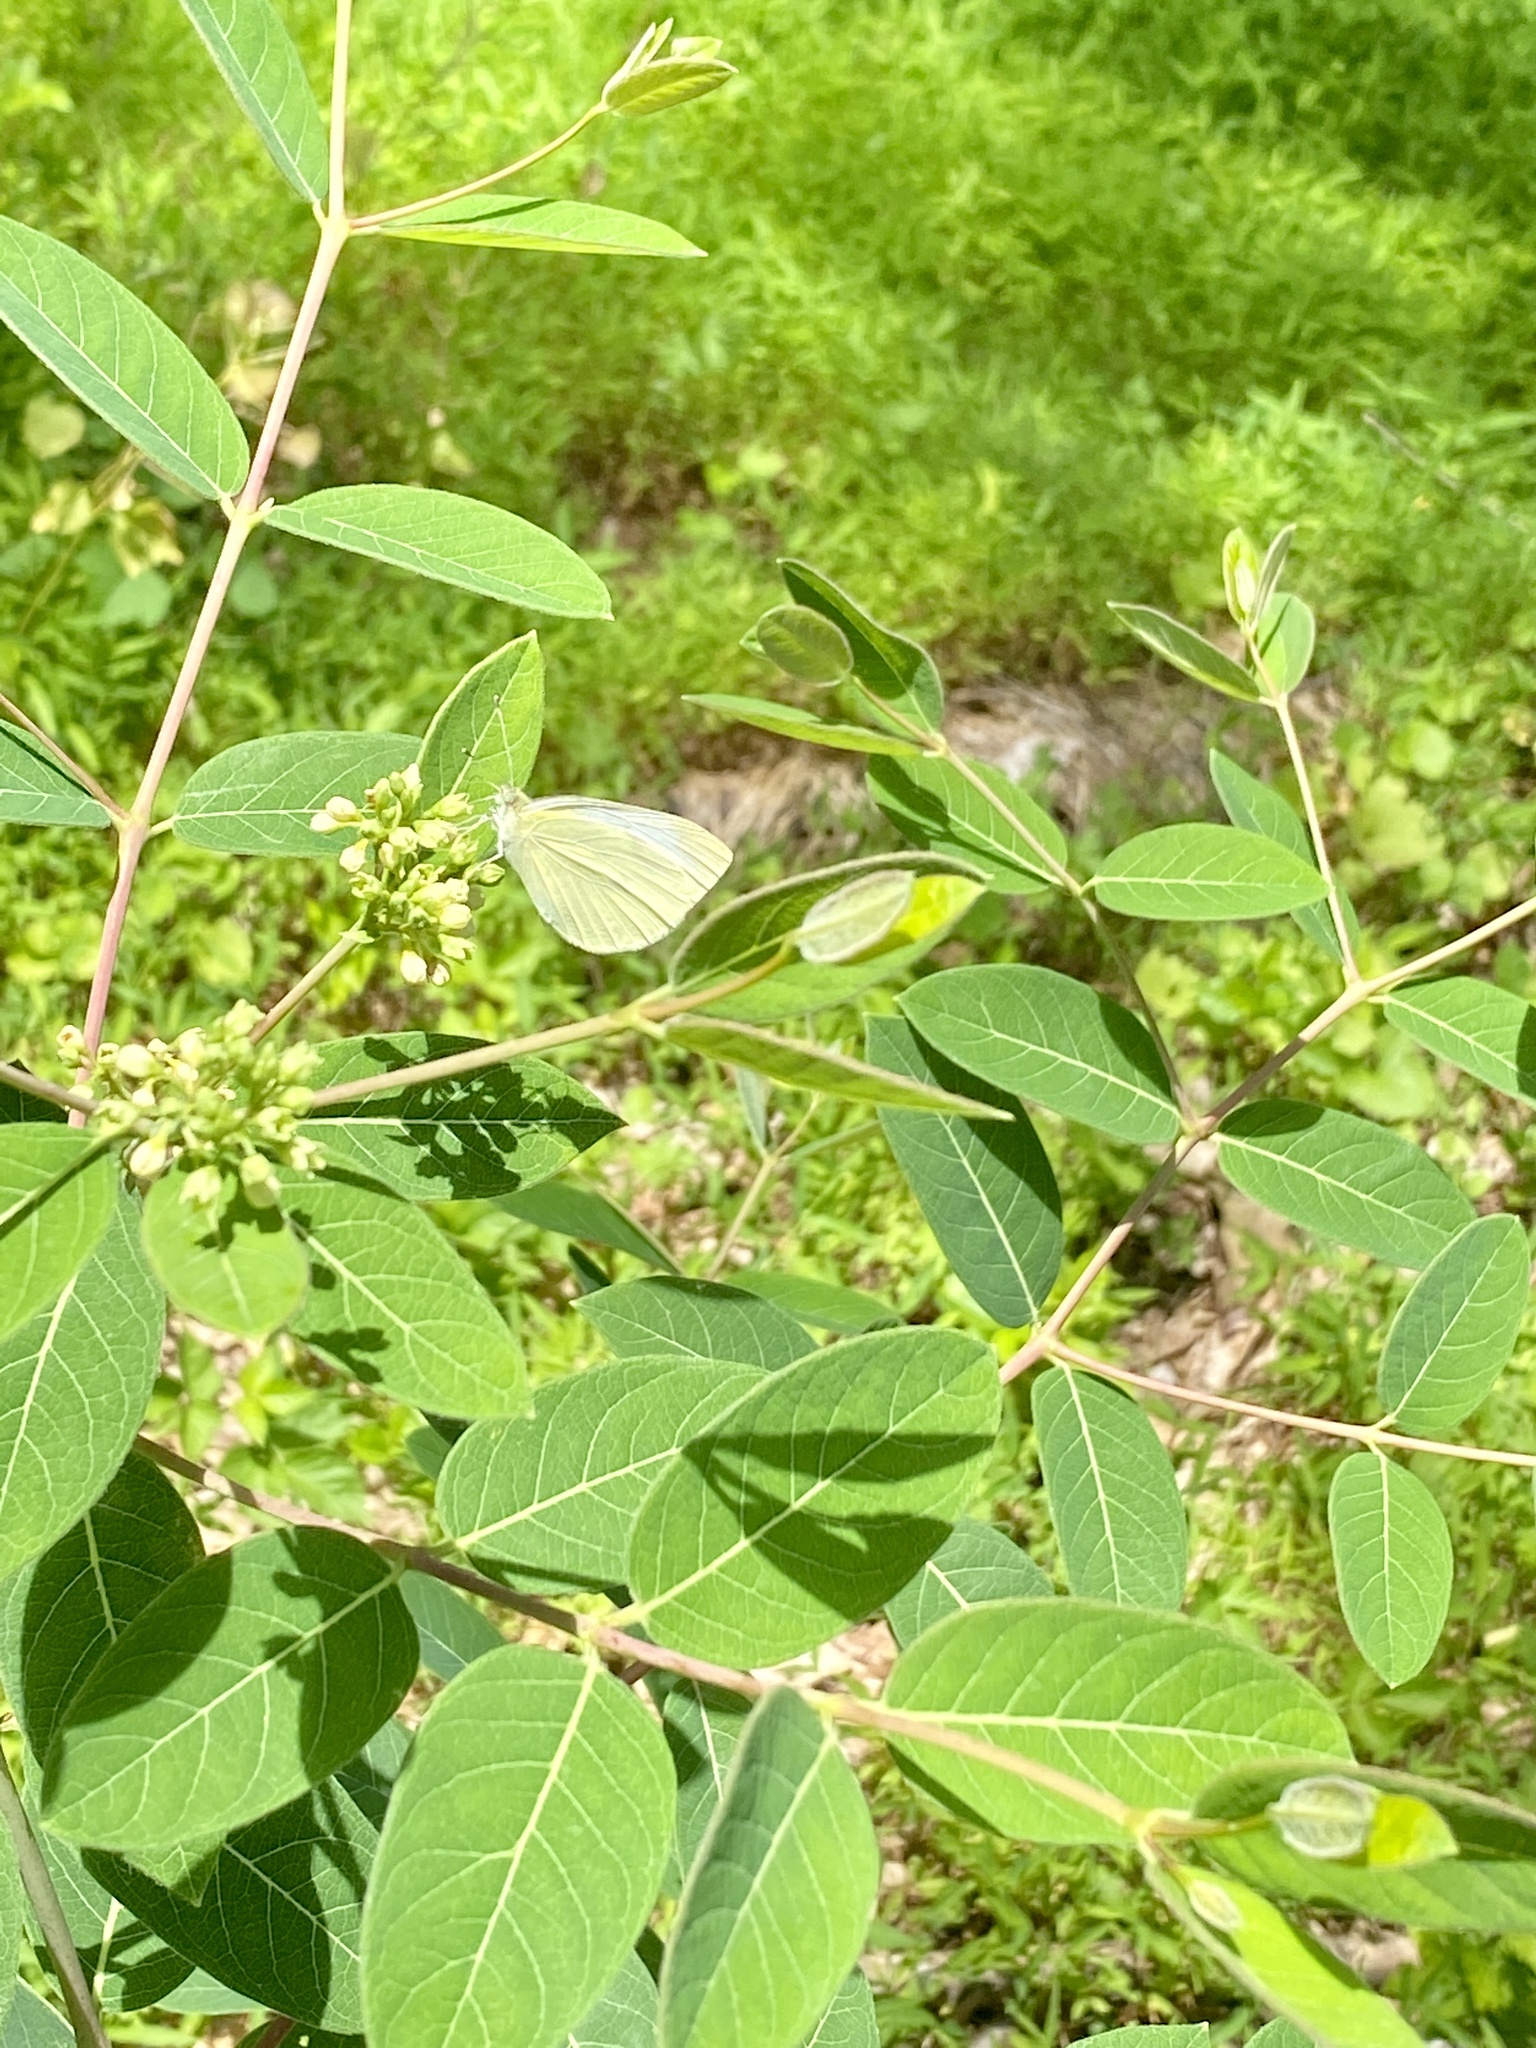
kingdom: Plantae
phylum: Tracheophyta
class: Magnoliopsida
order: Gentianales
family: Apocynaceae
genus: Apocynum
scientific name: Apocynum cannabinum
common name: Hemp dogbane
